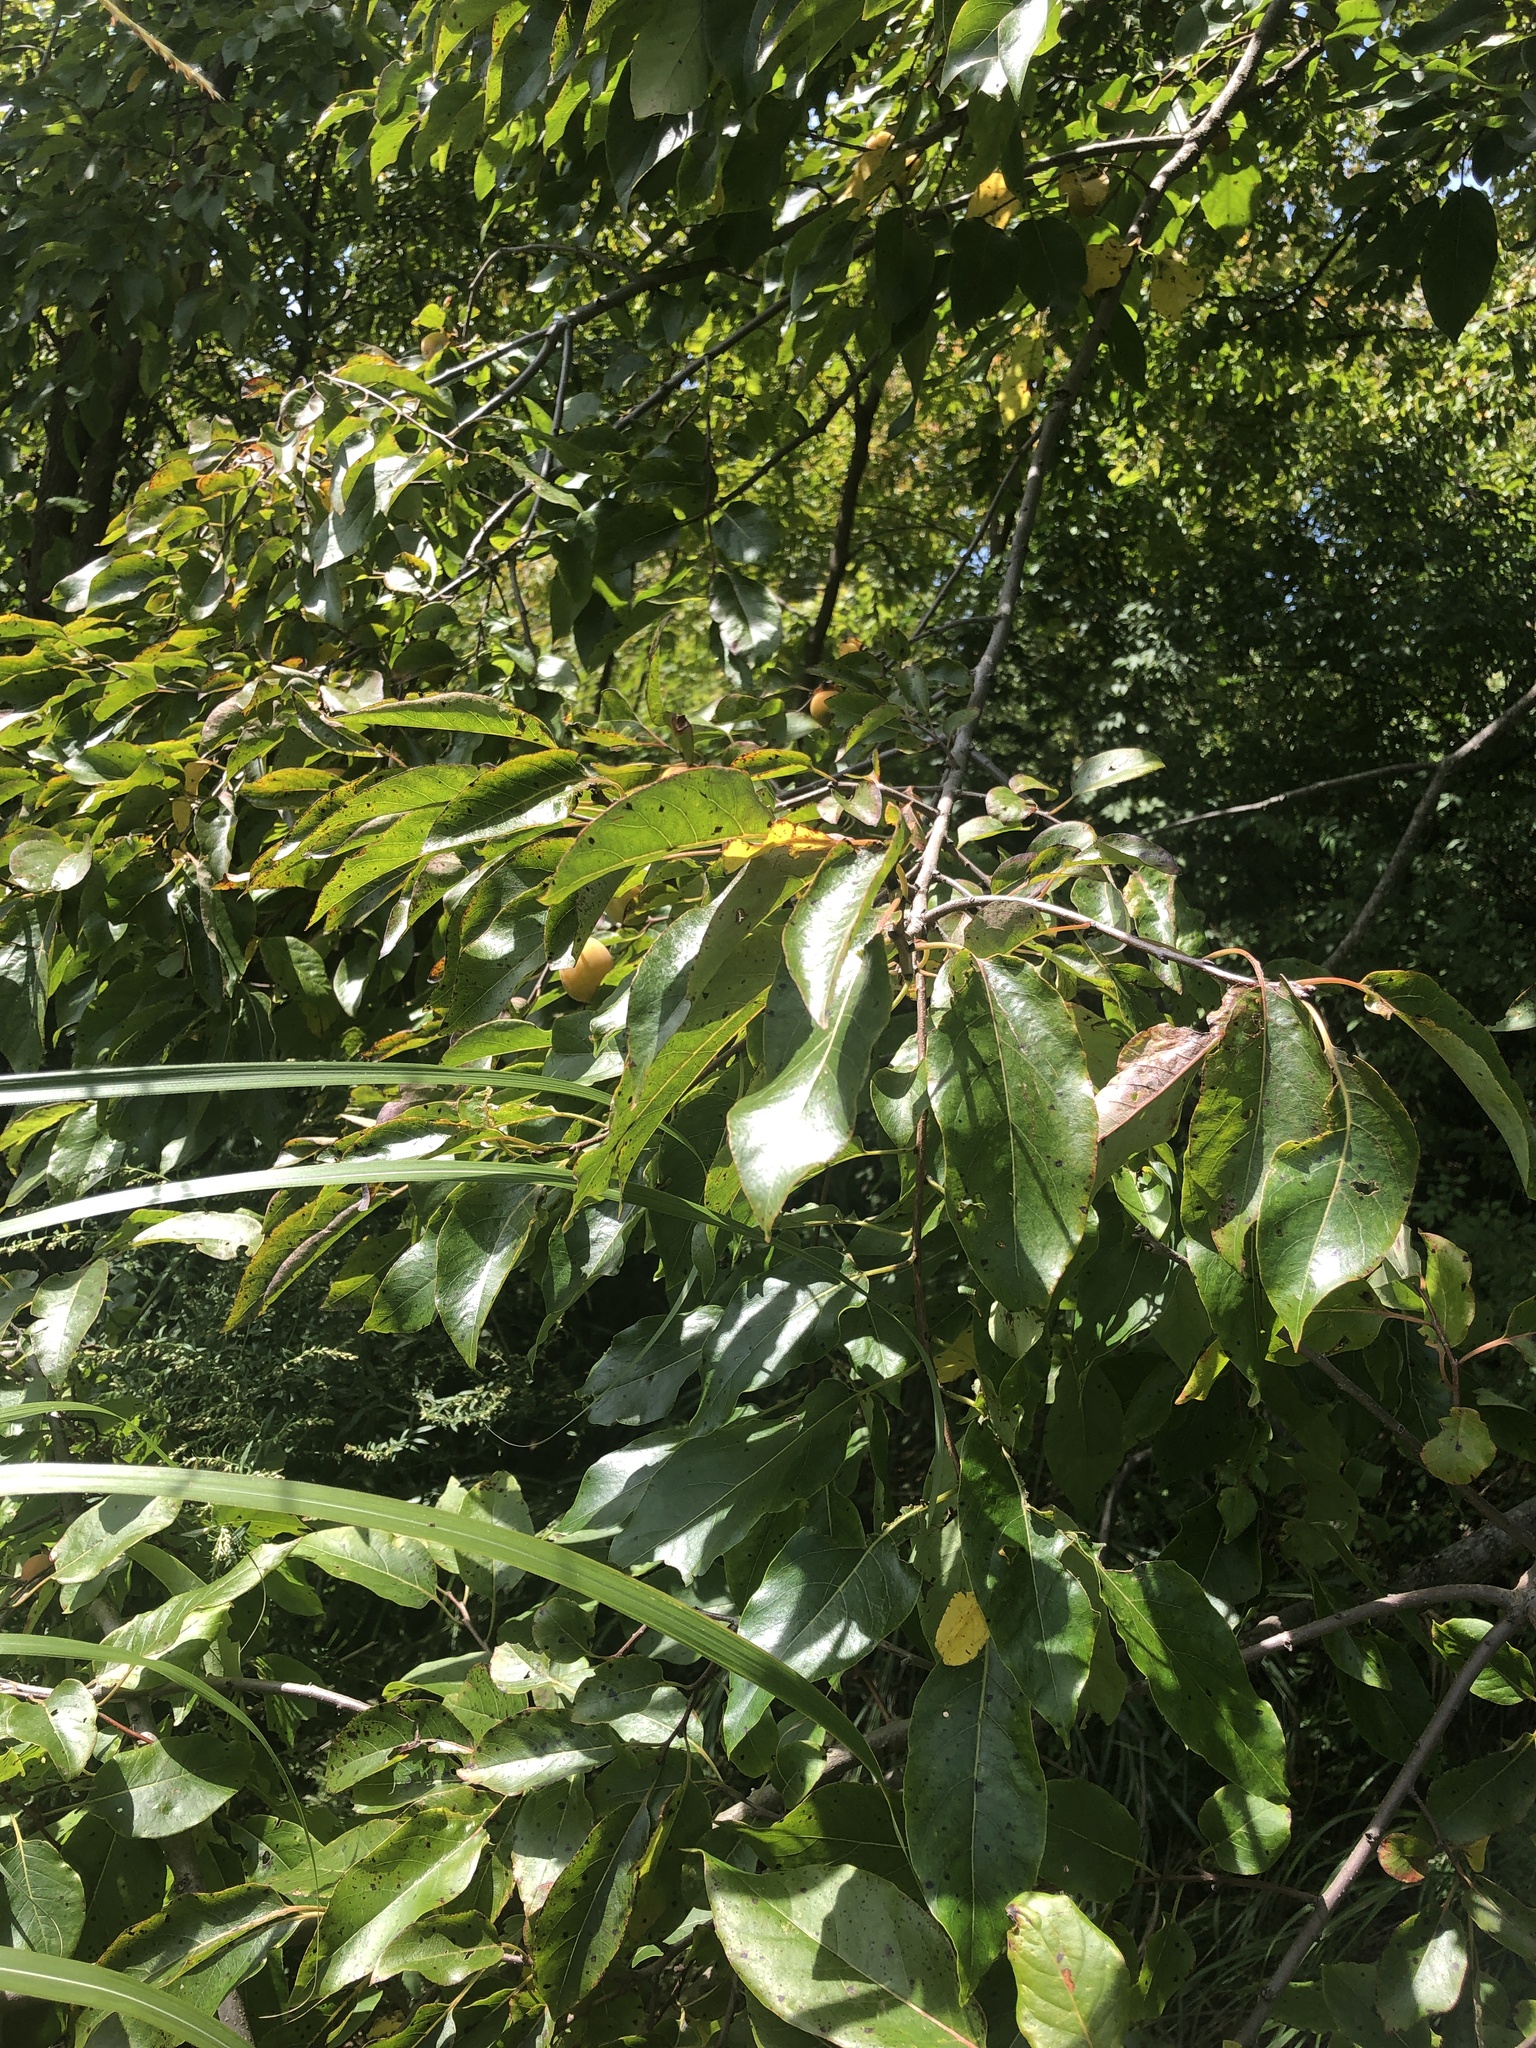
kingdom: Plantae
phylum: Tracheophyta
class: Magnoliopsida
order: Ericales
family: Ebenaceae
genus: Diospyros
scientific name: Diospyros virginiana
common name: Persimmon
